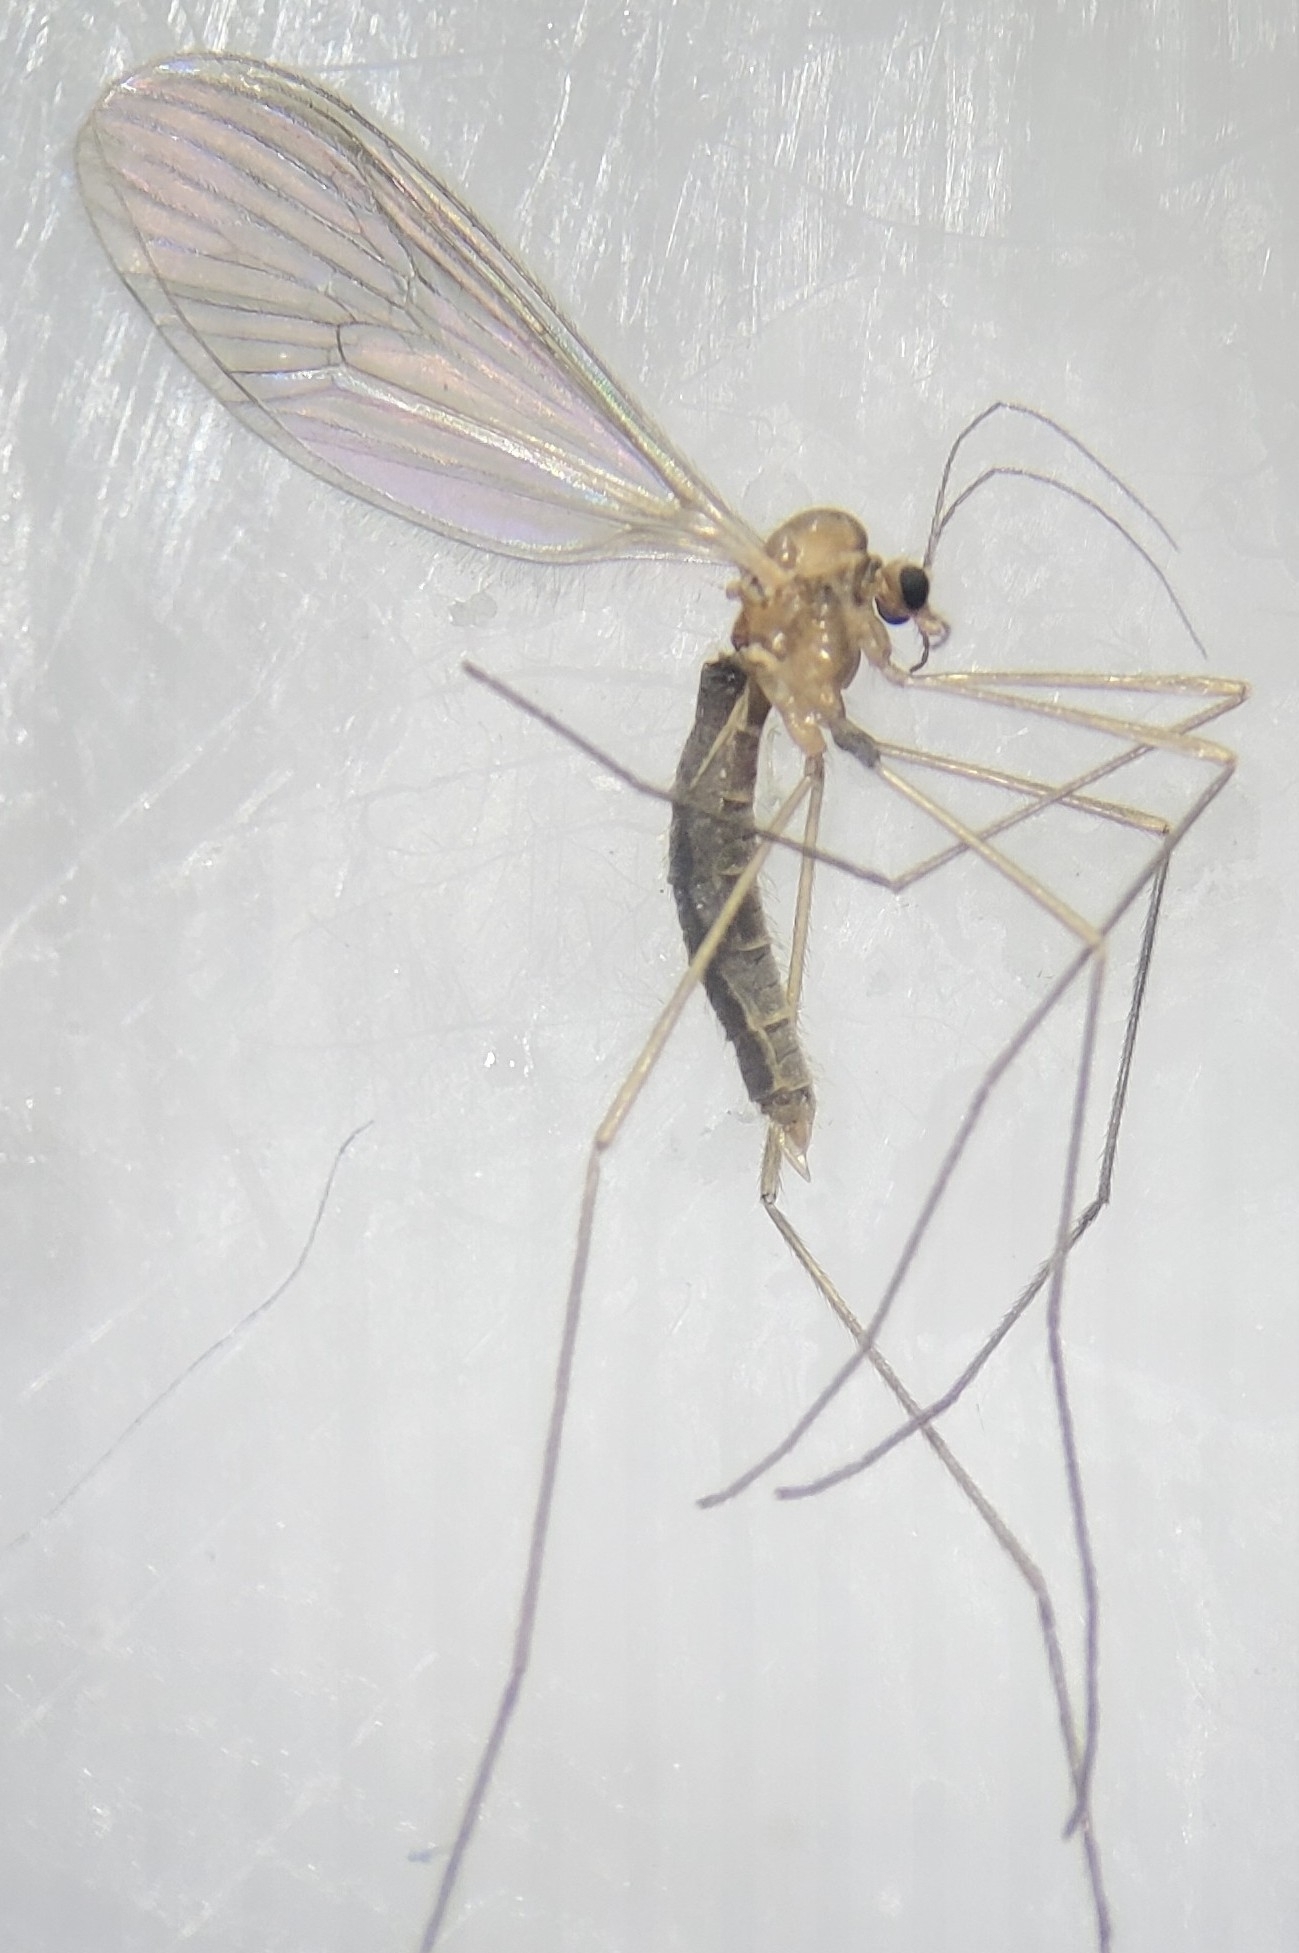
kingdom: Animalia
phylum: Arthropoda
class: Insecta
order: Diptera
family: Trichoceridae
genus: Paracladura
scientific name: Paracladura trichoptera
